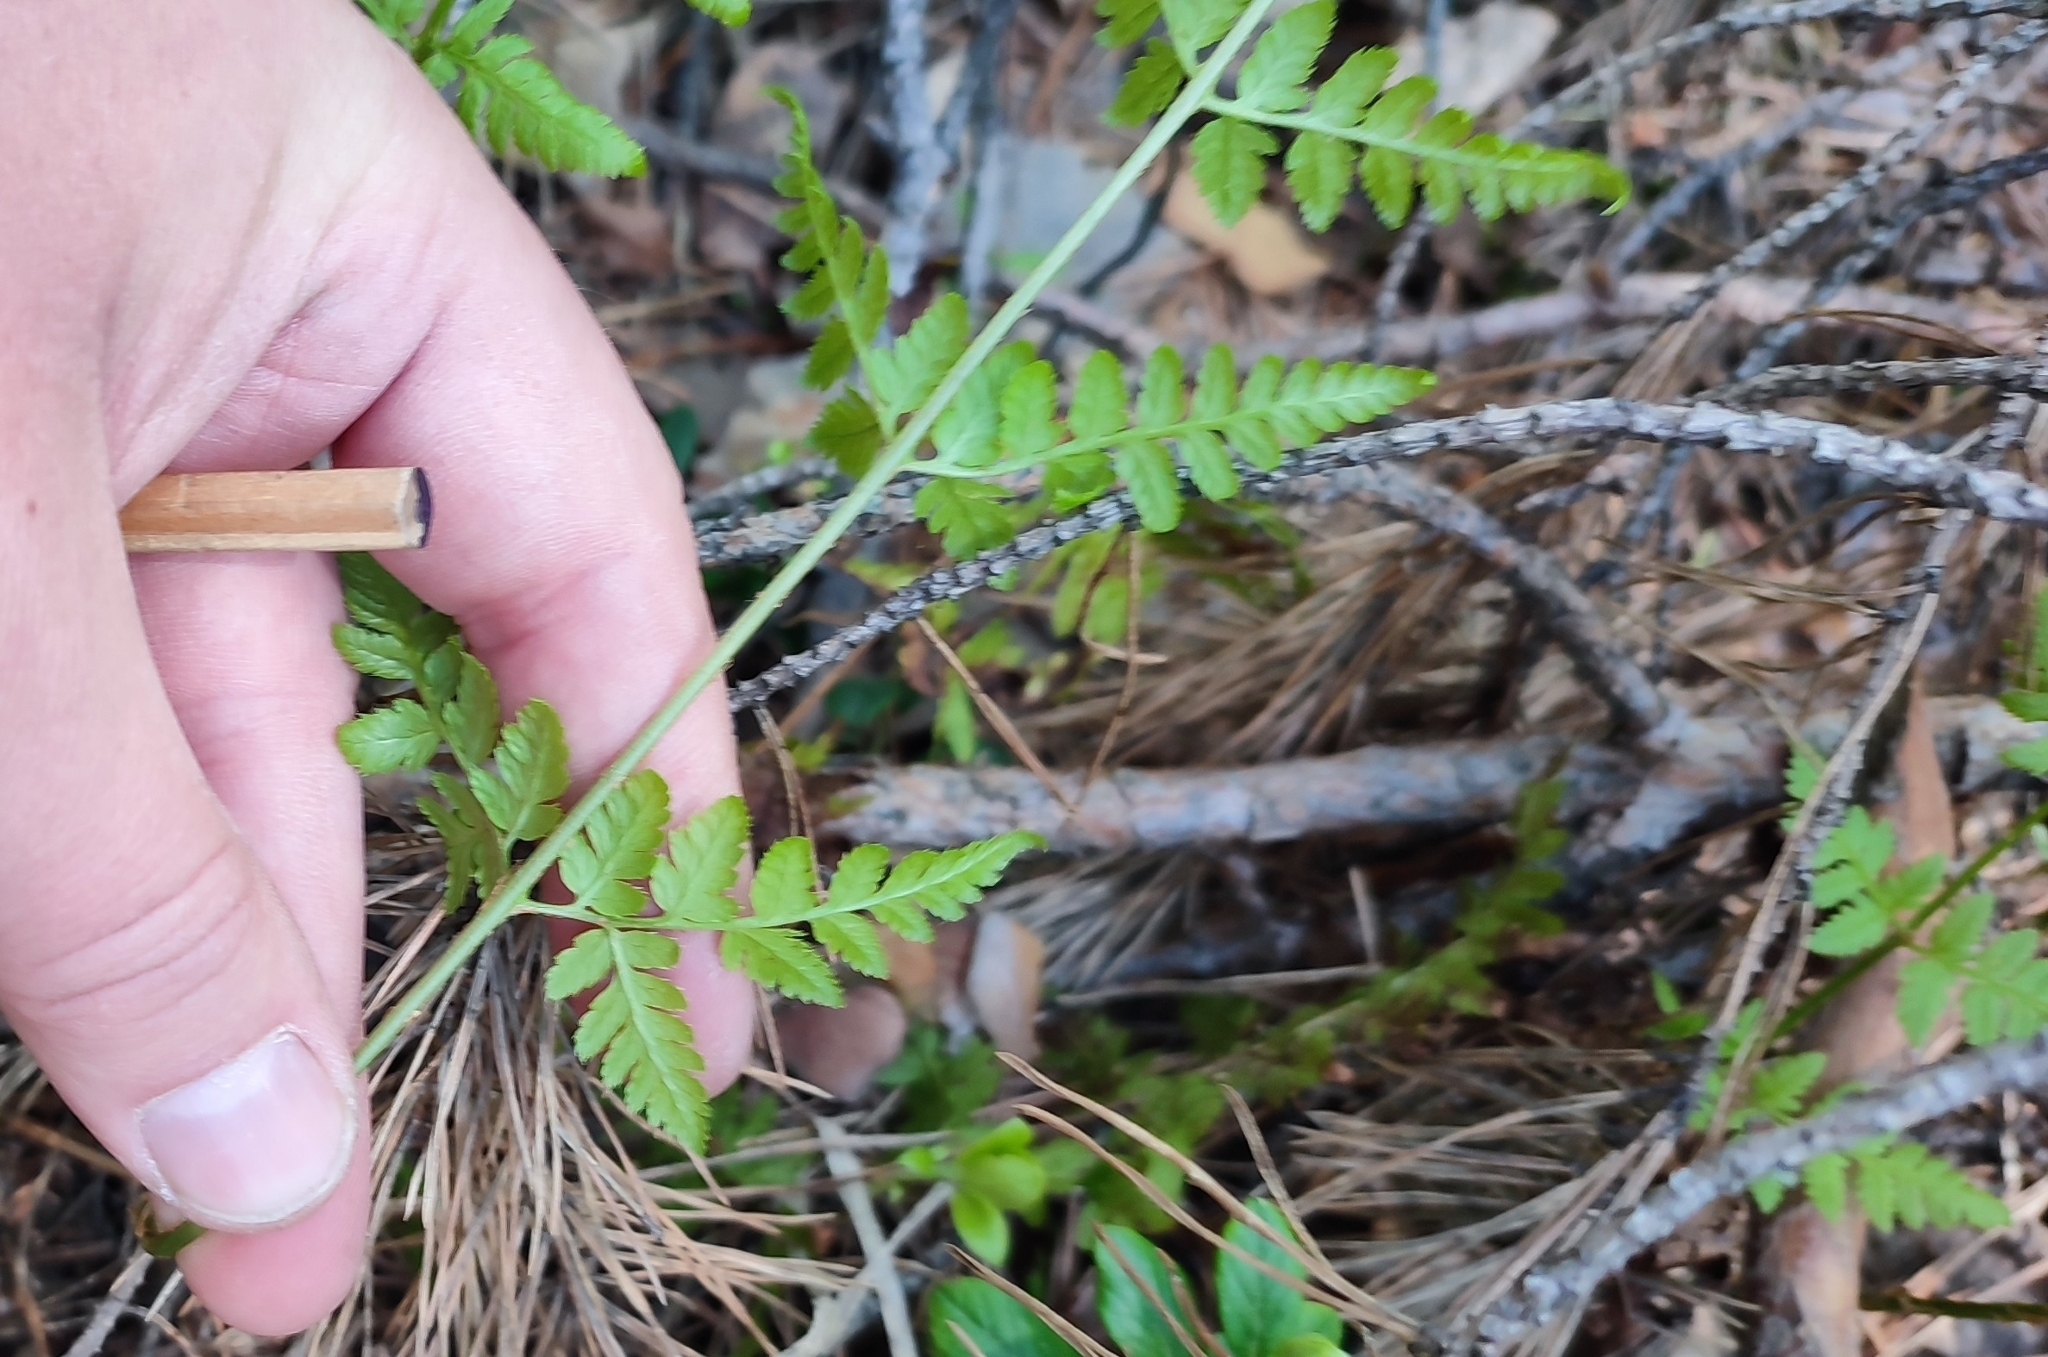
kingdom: Plantae
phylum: Tracheophyta
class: Polypodiopsida
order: Polypodiales
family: Dryopteridaceae
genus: Dryopteris
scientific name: Dryopteris carthusiana
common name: Narrow buckler-fern
